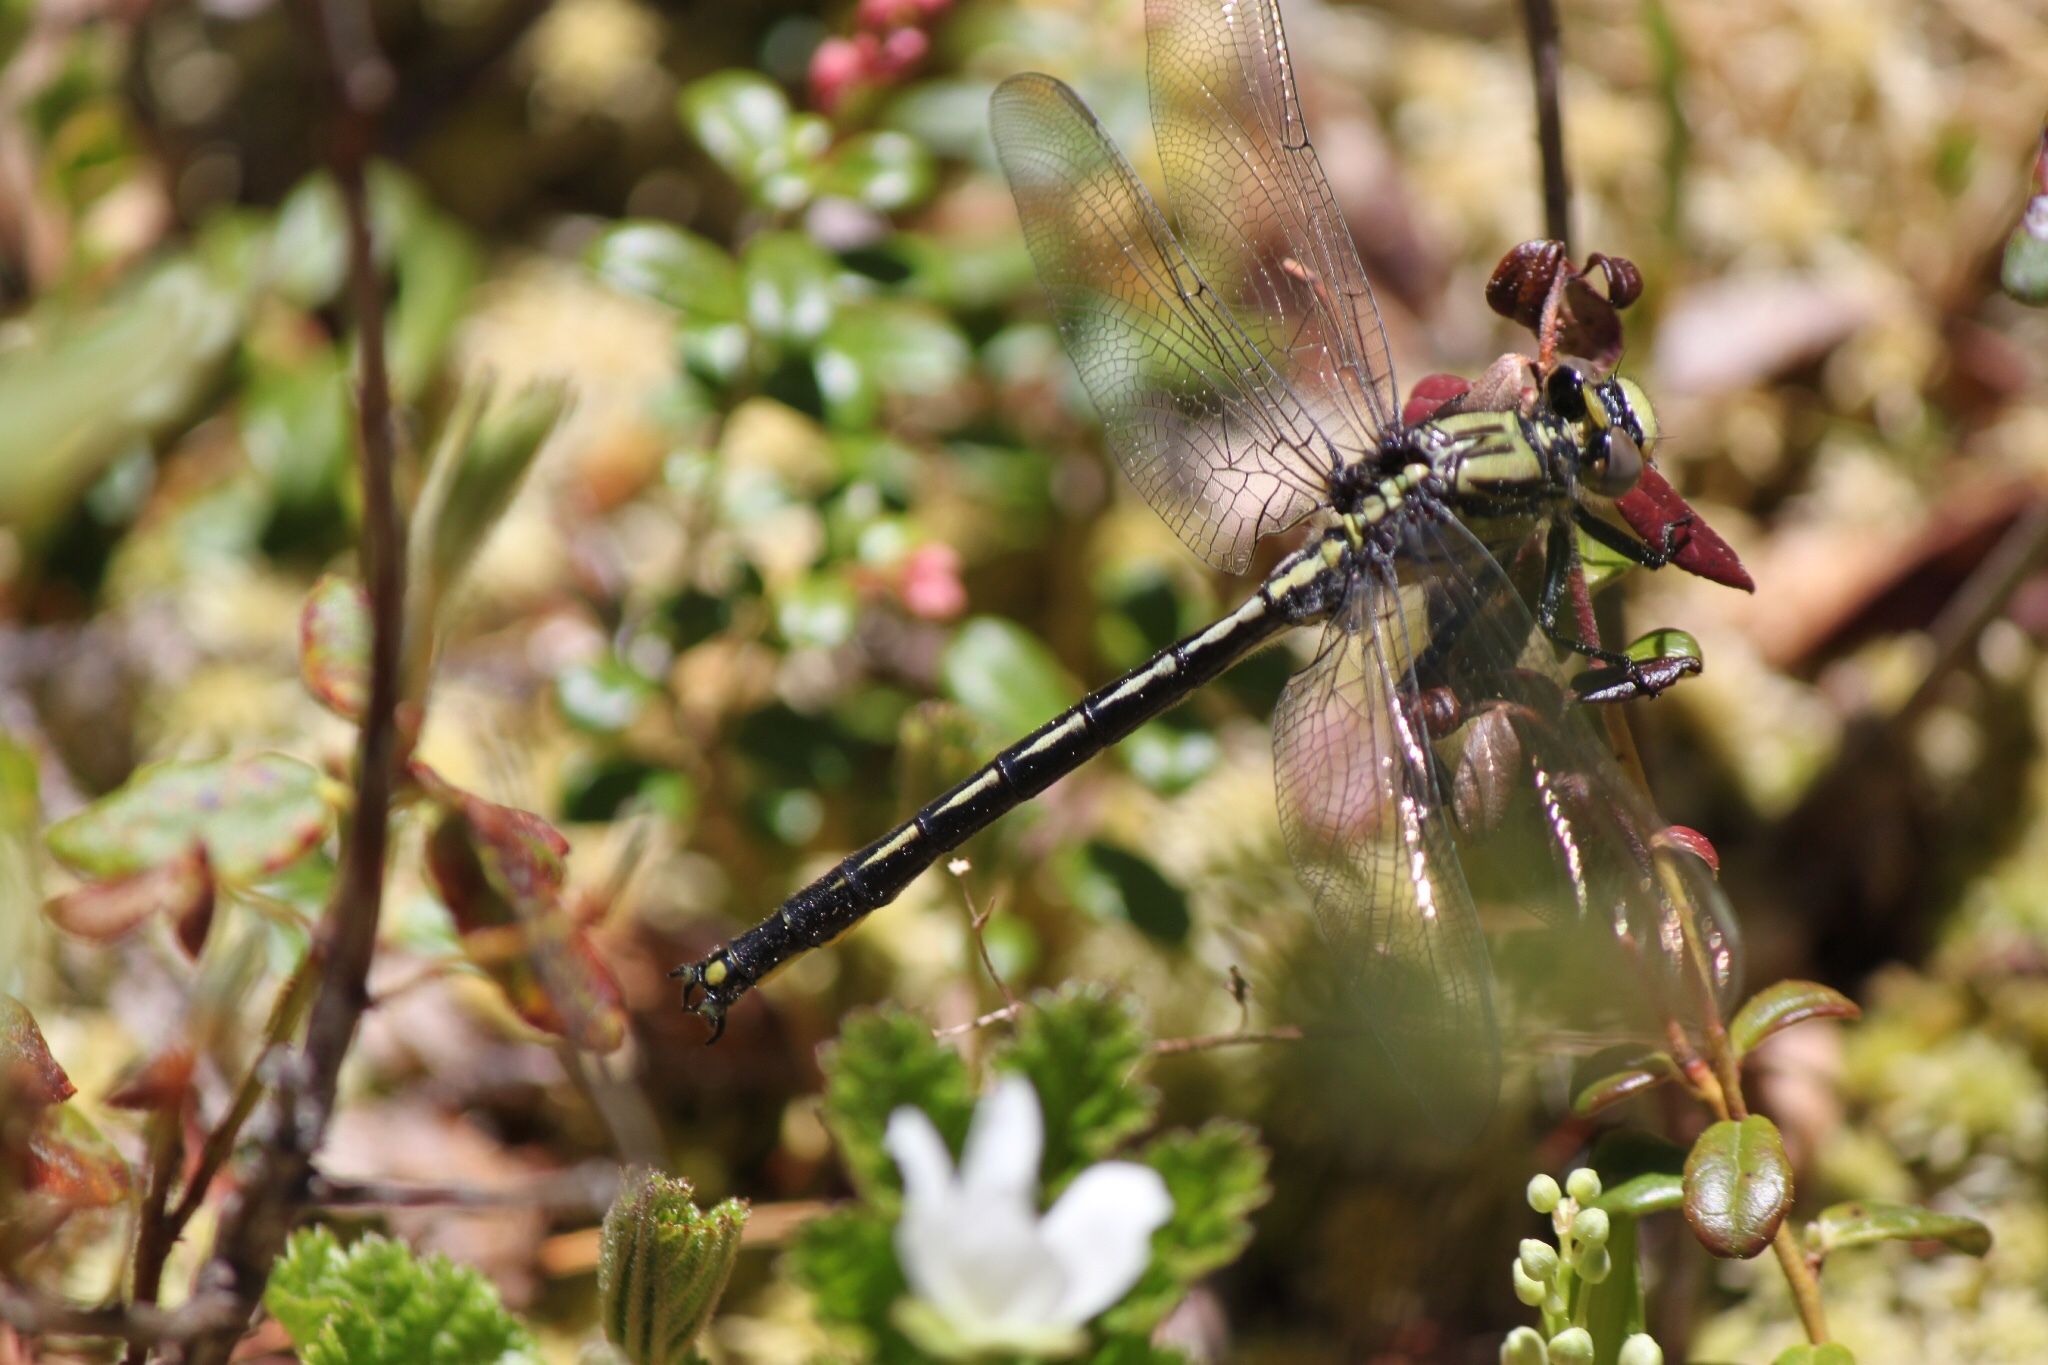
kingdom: Animalia
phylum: Arthropoda
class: Insecta
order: Odonata
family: Gomphidae
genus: Arigomphus
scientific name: Arigomphus cornutus
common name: Horned clubtail
